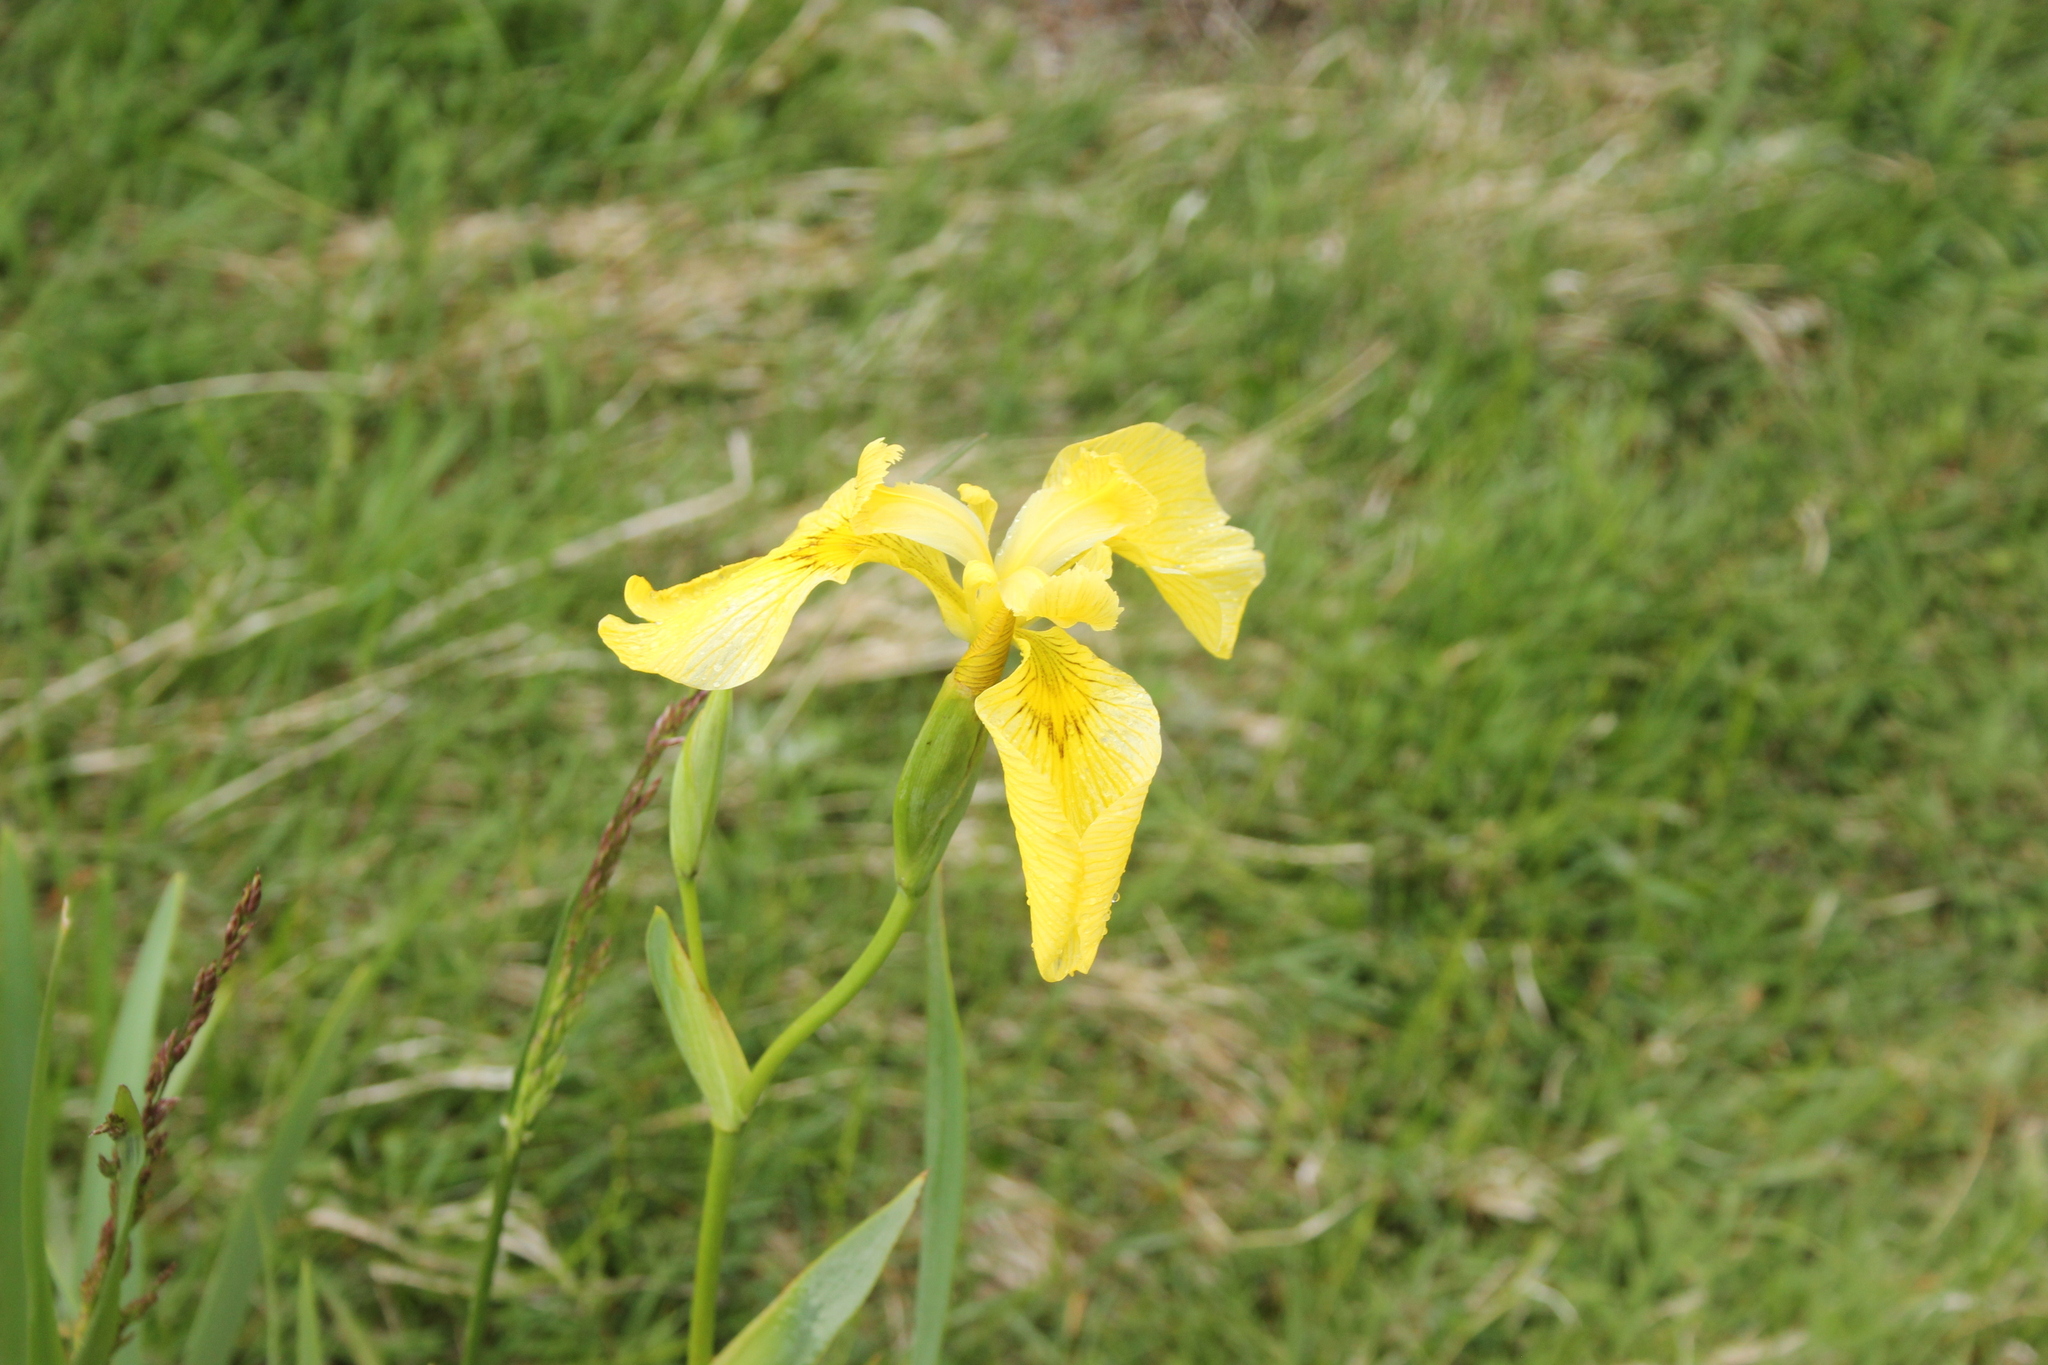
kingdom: Plantae
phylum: Tracheophyta
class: Liliopsida
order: Asparagales
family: Iridaceae
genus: Iris
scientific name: Iris pseudacorus
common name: Yellow flag
